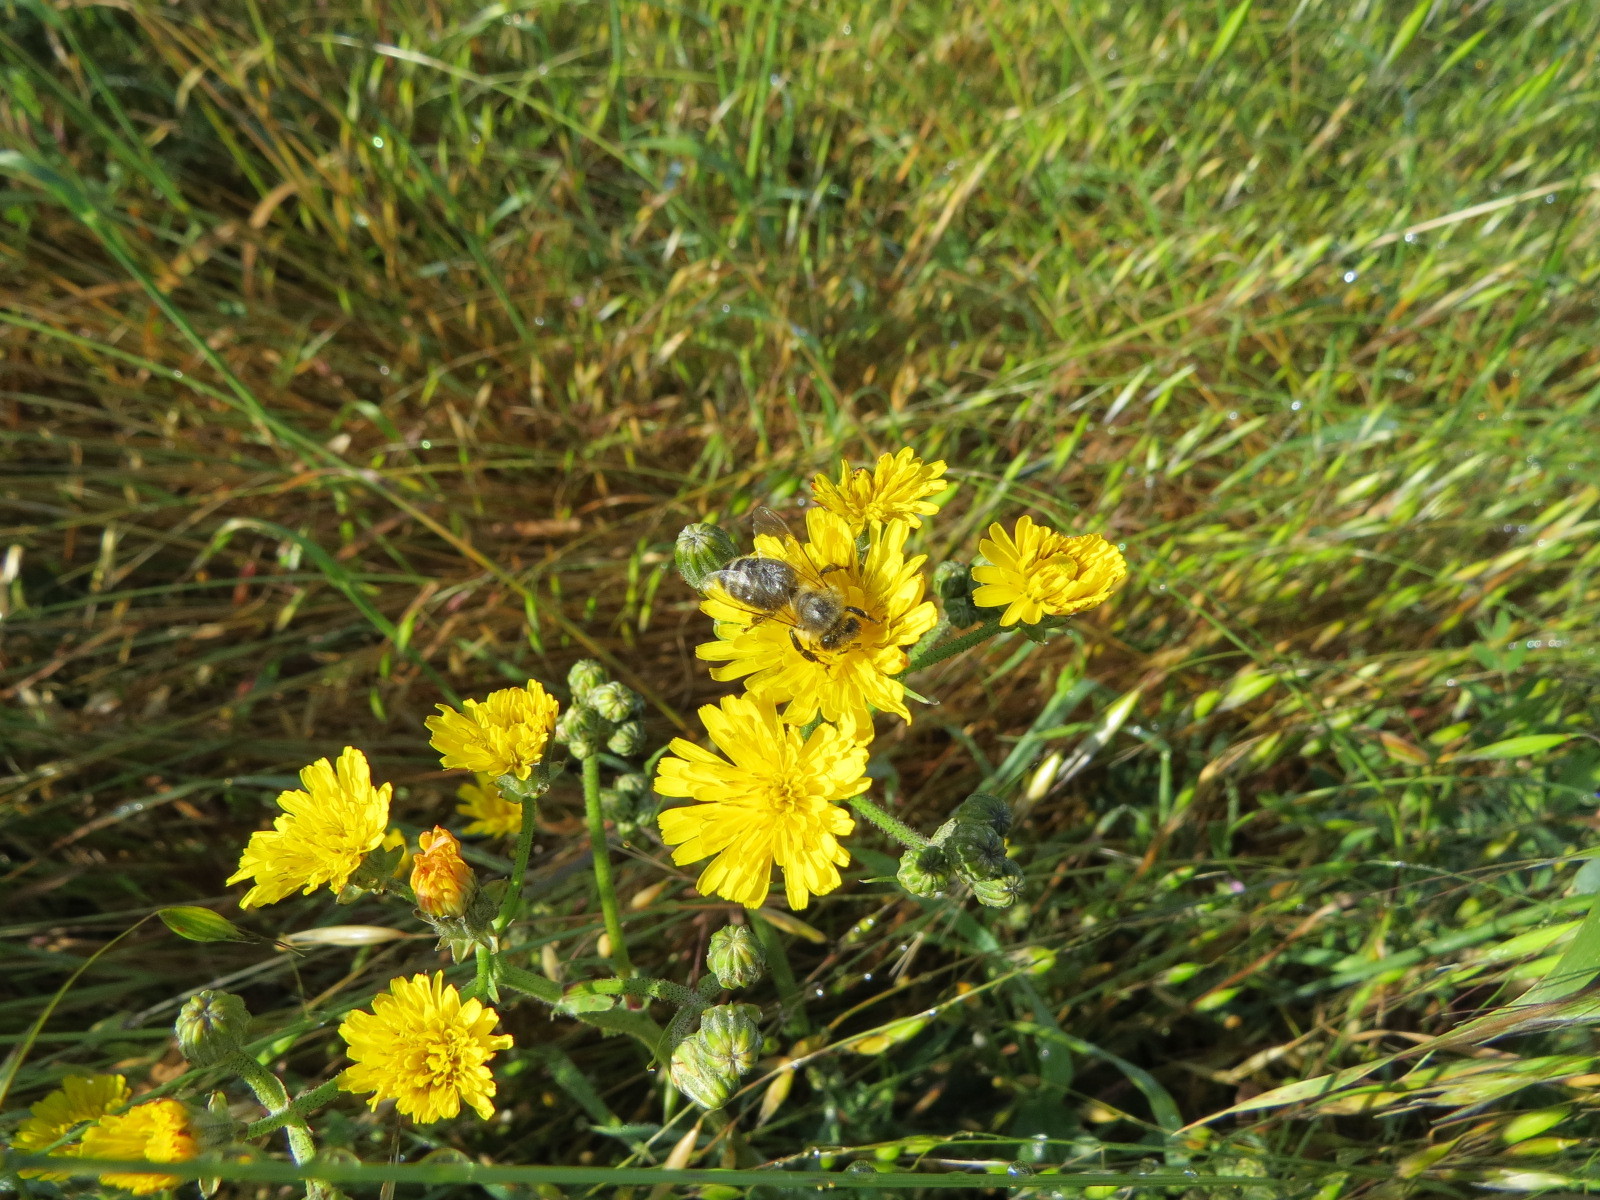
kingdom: Animalia
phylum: Arthropoda
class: Insecta
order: Hymenoptera
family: Apidae
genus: Apis
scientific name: Apis mellifera
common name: Honey bee
